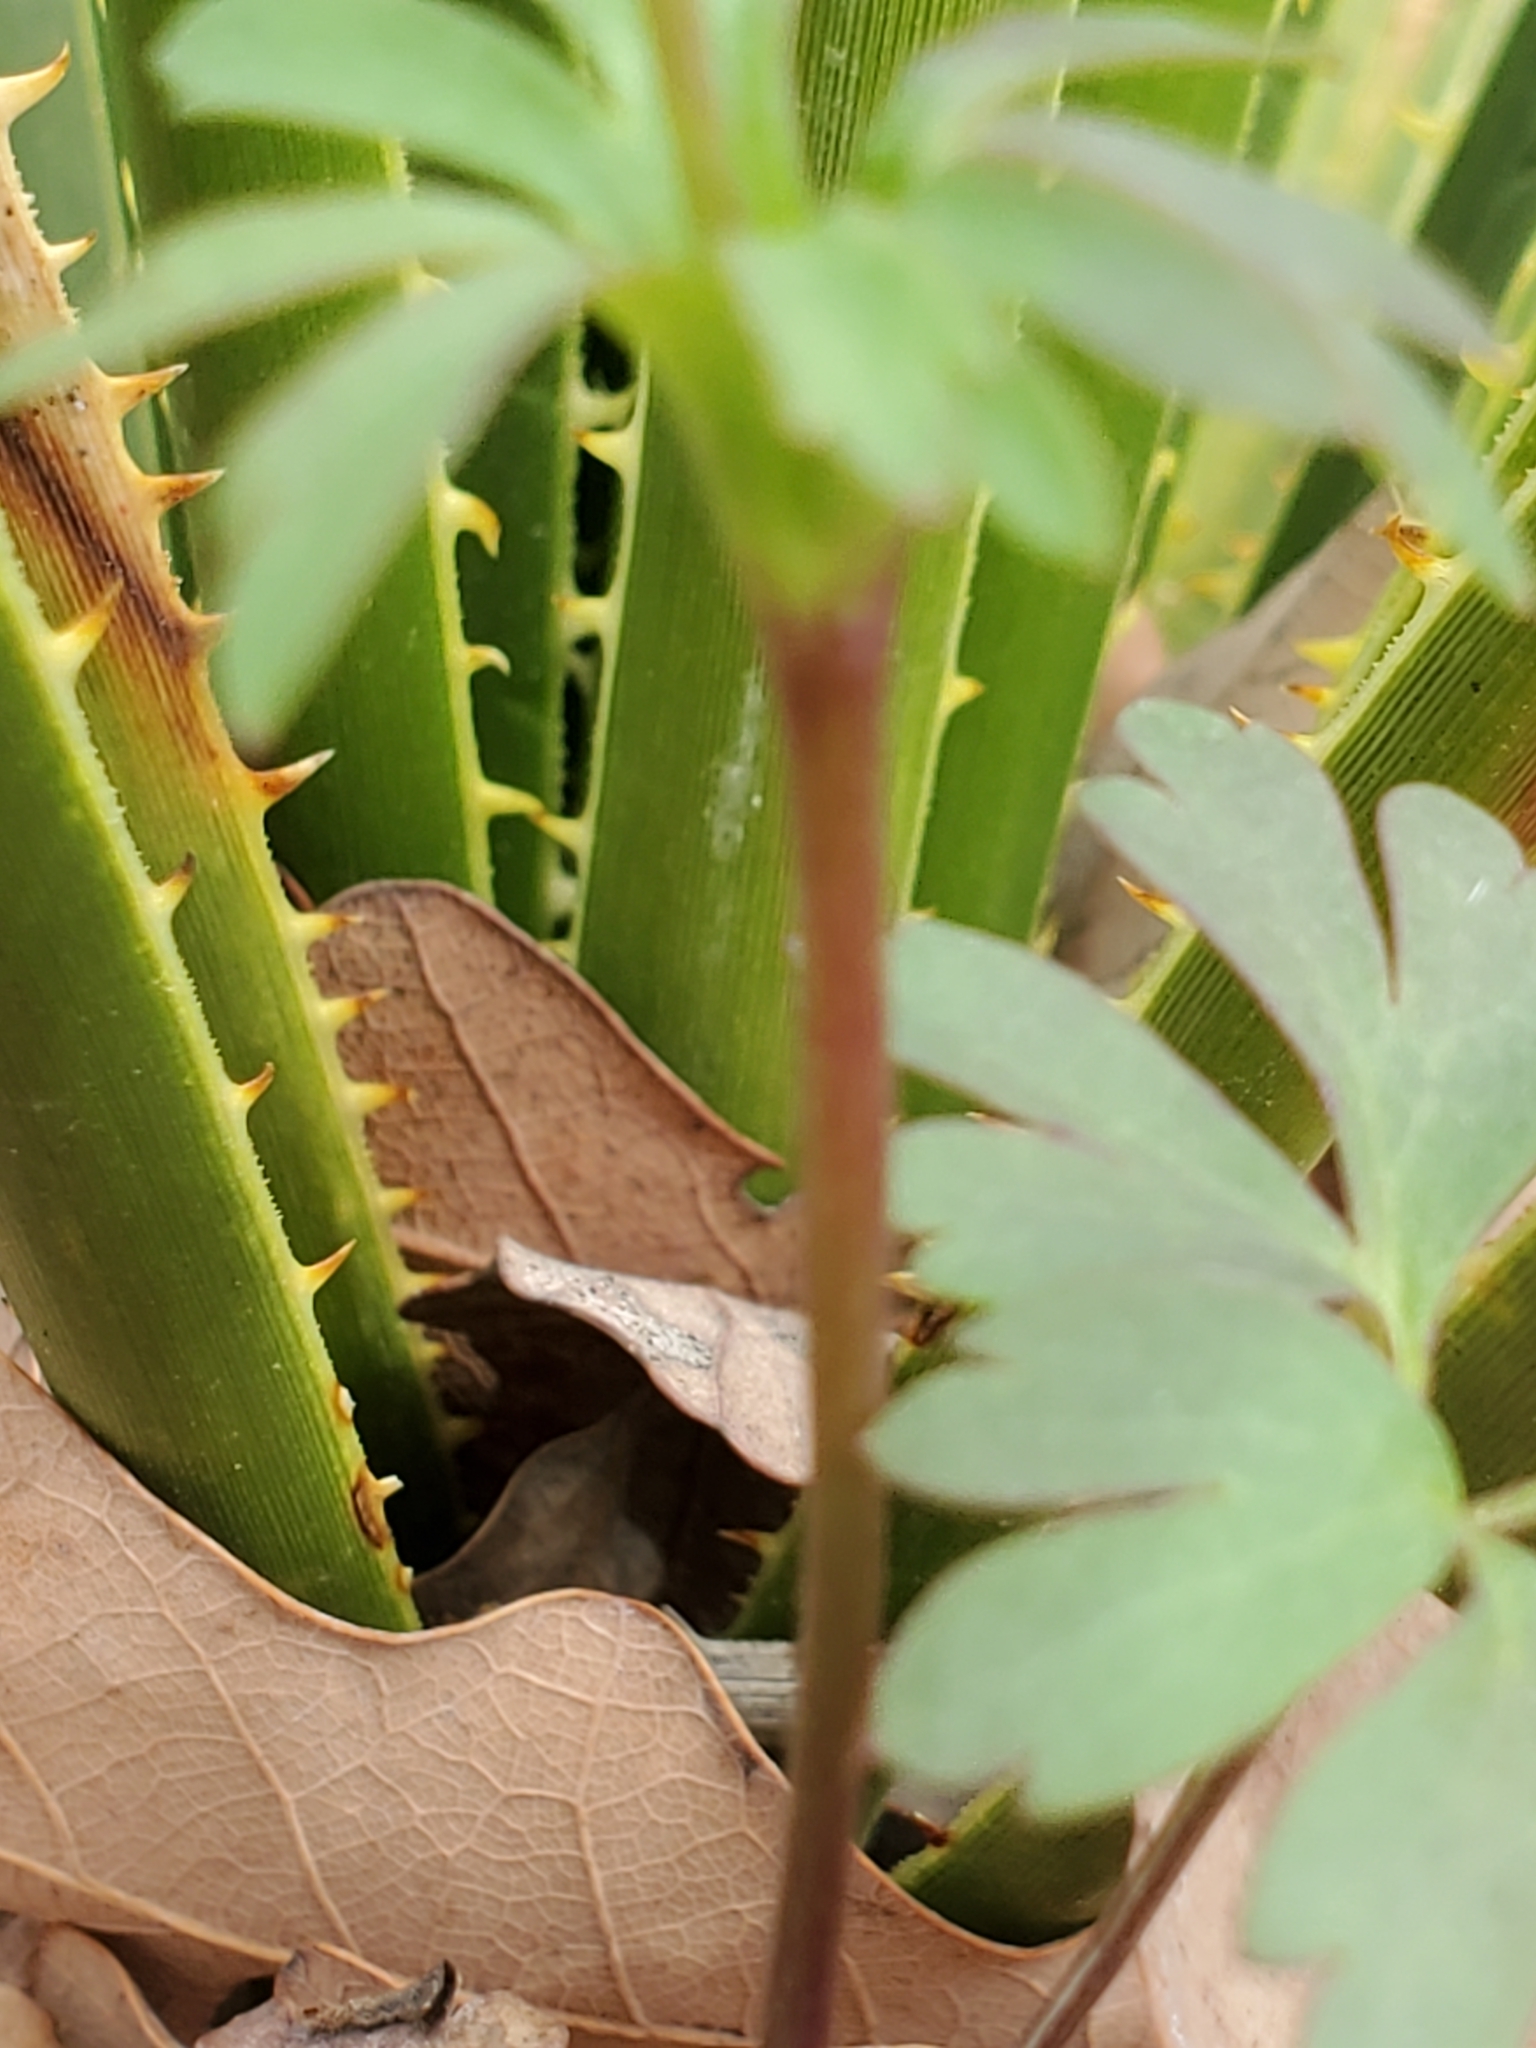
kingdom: Plantae
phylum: Tracheophyta
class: Magnoliopsida
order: Ranunculales
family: Ranunculaceae
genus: Anemone
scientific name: Anemone edwardsiana
